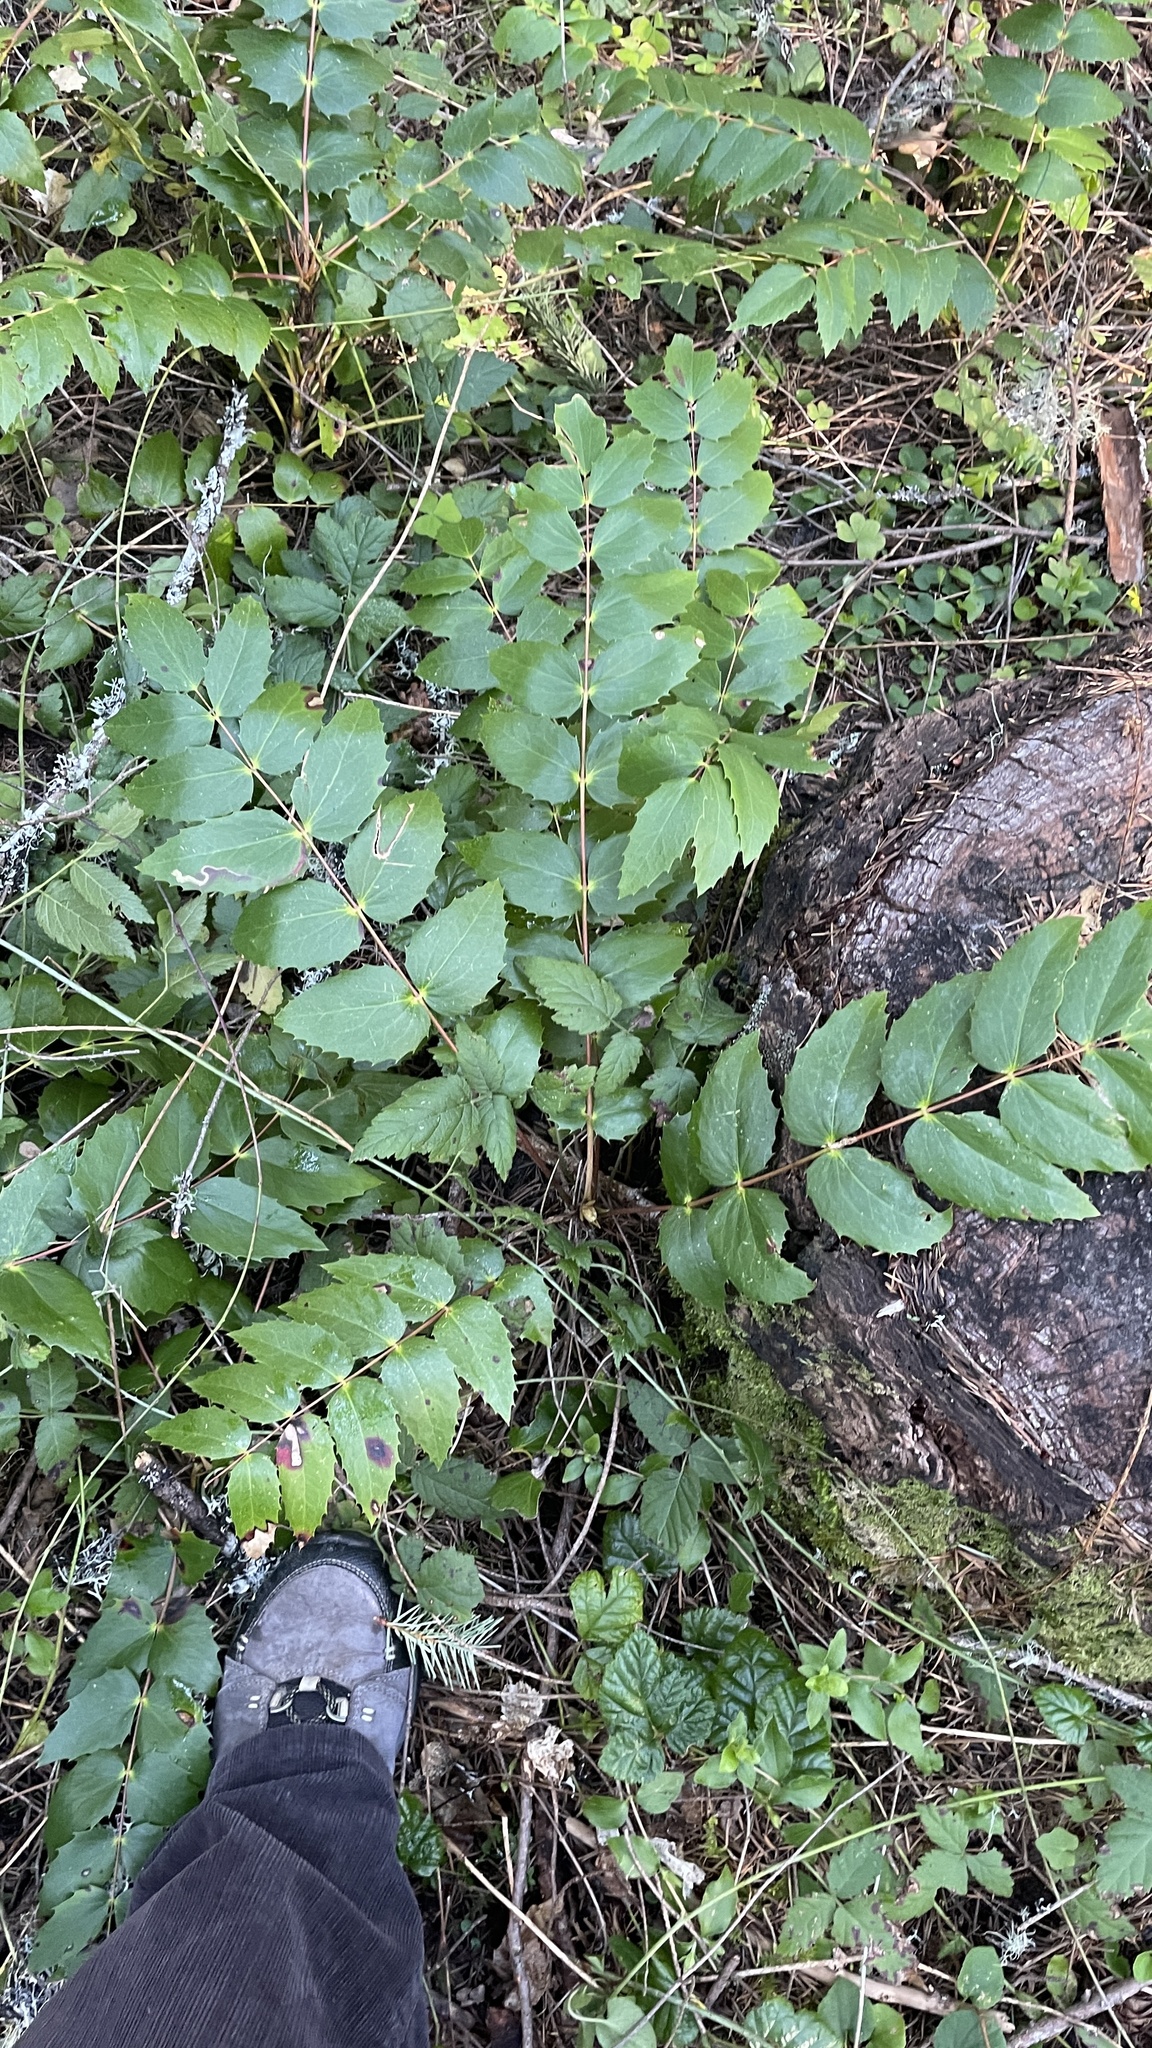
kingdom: Plantae
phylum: Tracheophyta
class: Magnoliopsida
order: Ranunculales
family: Berberidaceae
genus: Mahonia
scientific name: Mahonia nervosa
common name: Cascade oregon-grape
